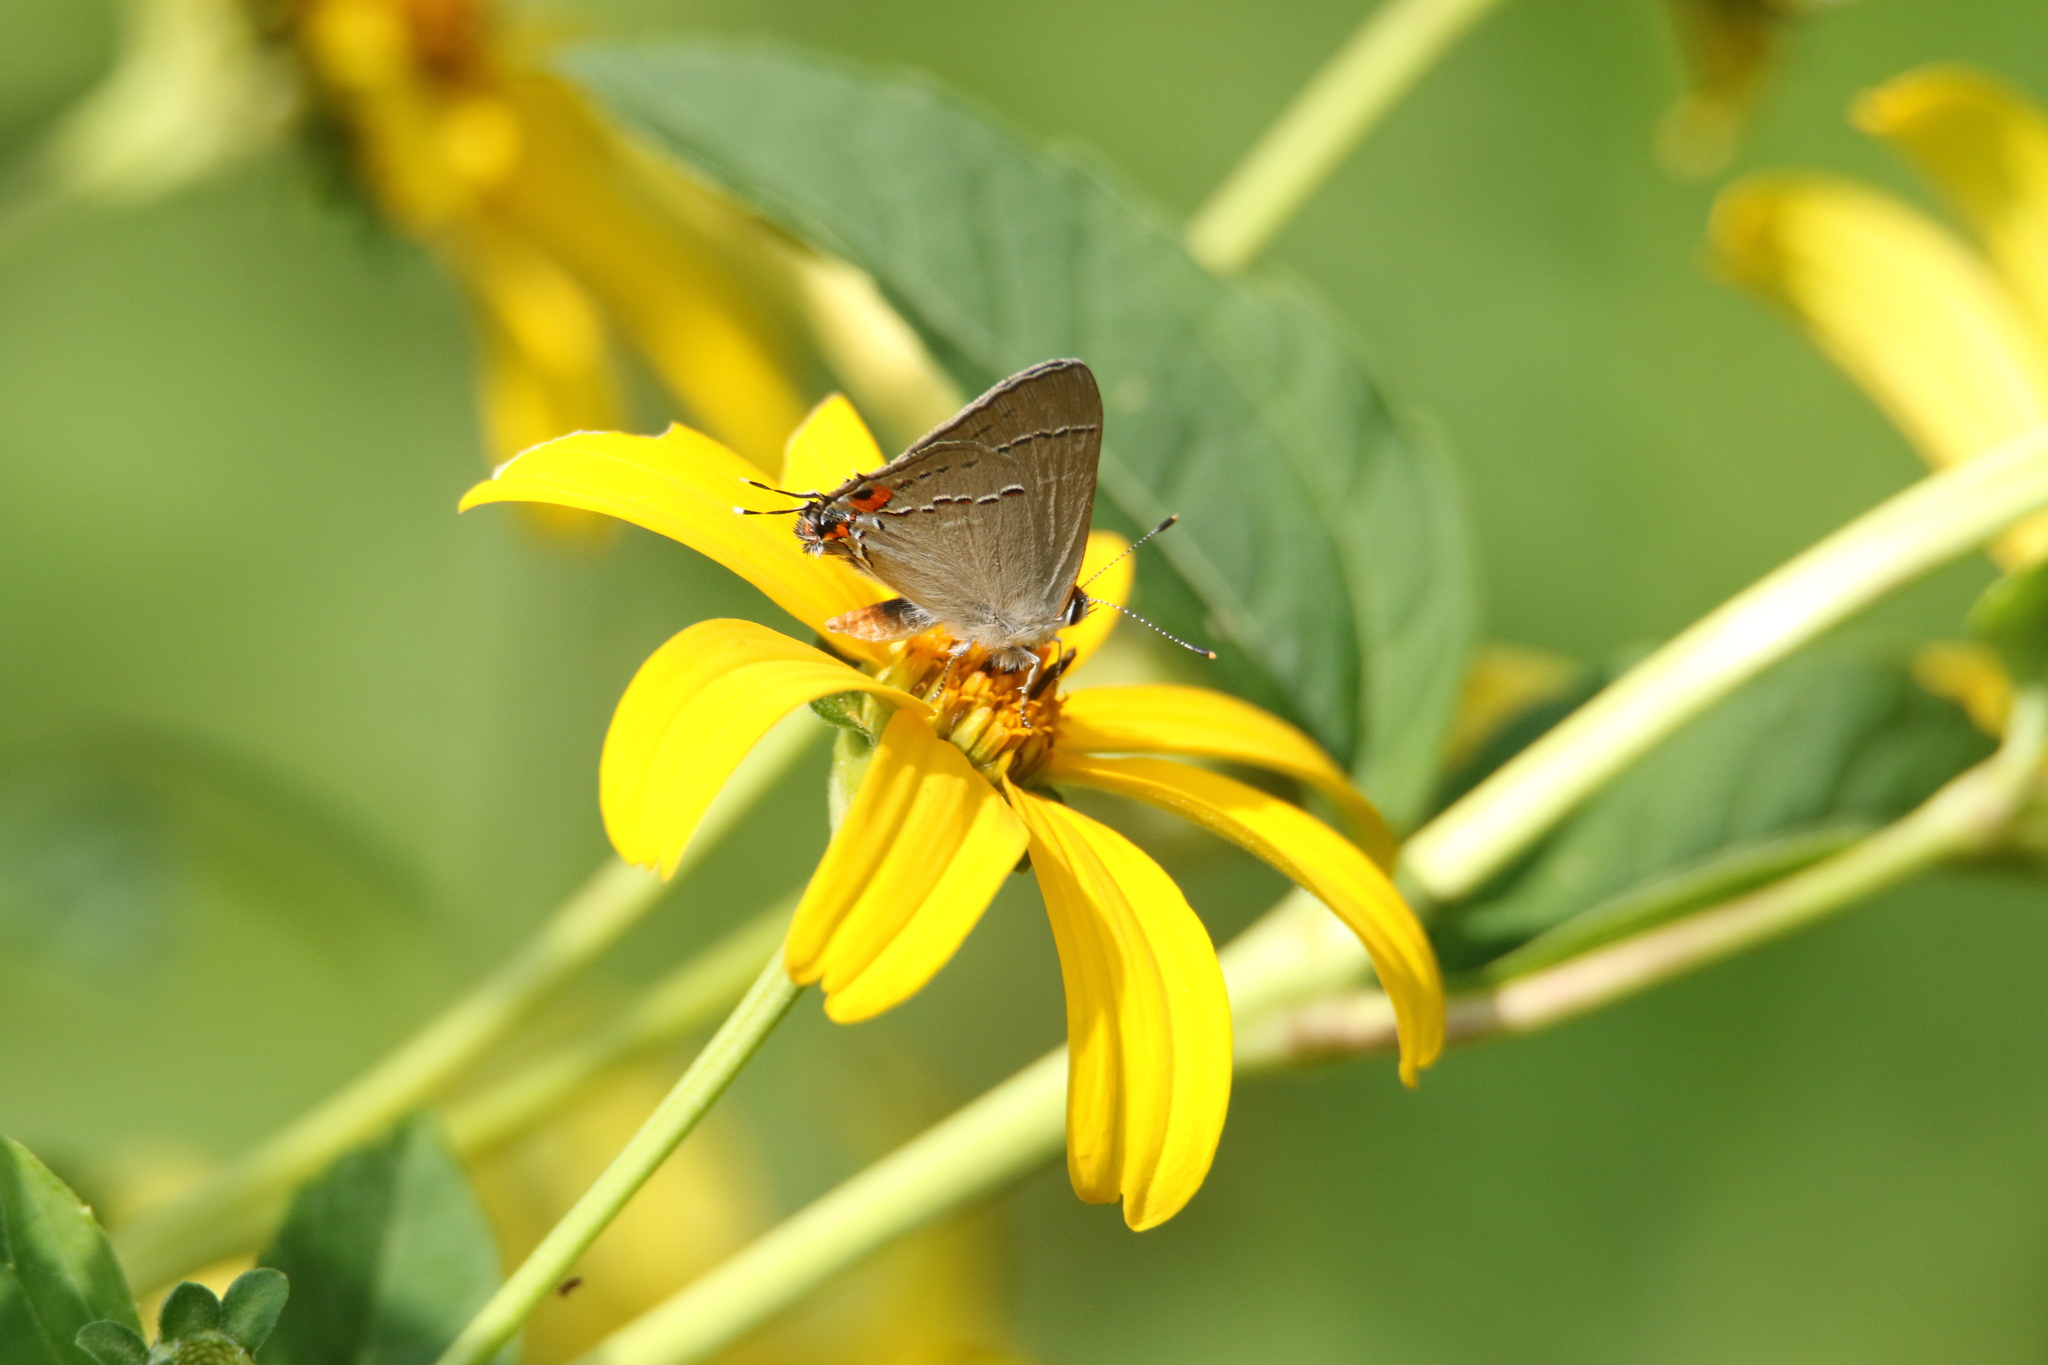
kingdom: Animalia
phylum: Arthropoda
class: Insecta
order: Lepidoptera
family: Lycaenidae
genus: Strymon
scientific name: Strymon melinus
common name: Gray hairstreak
